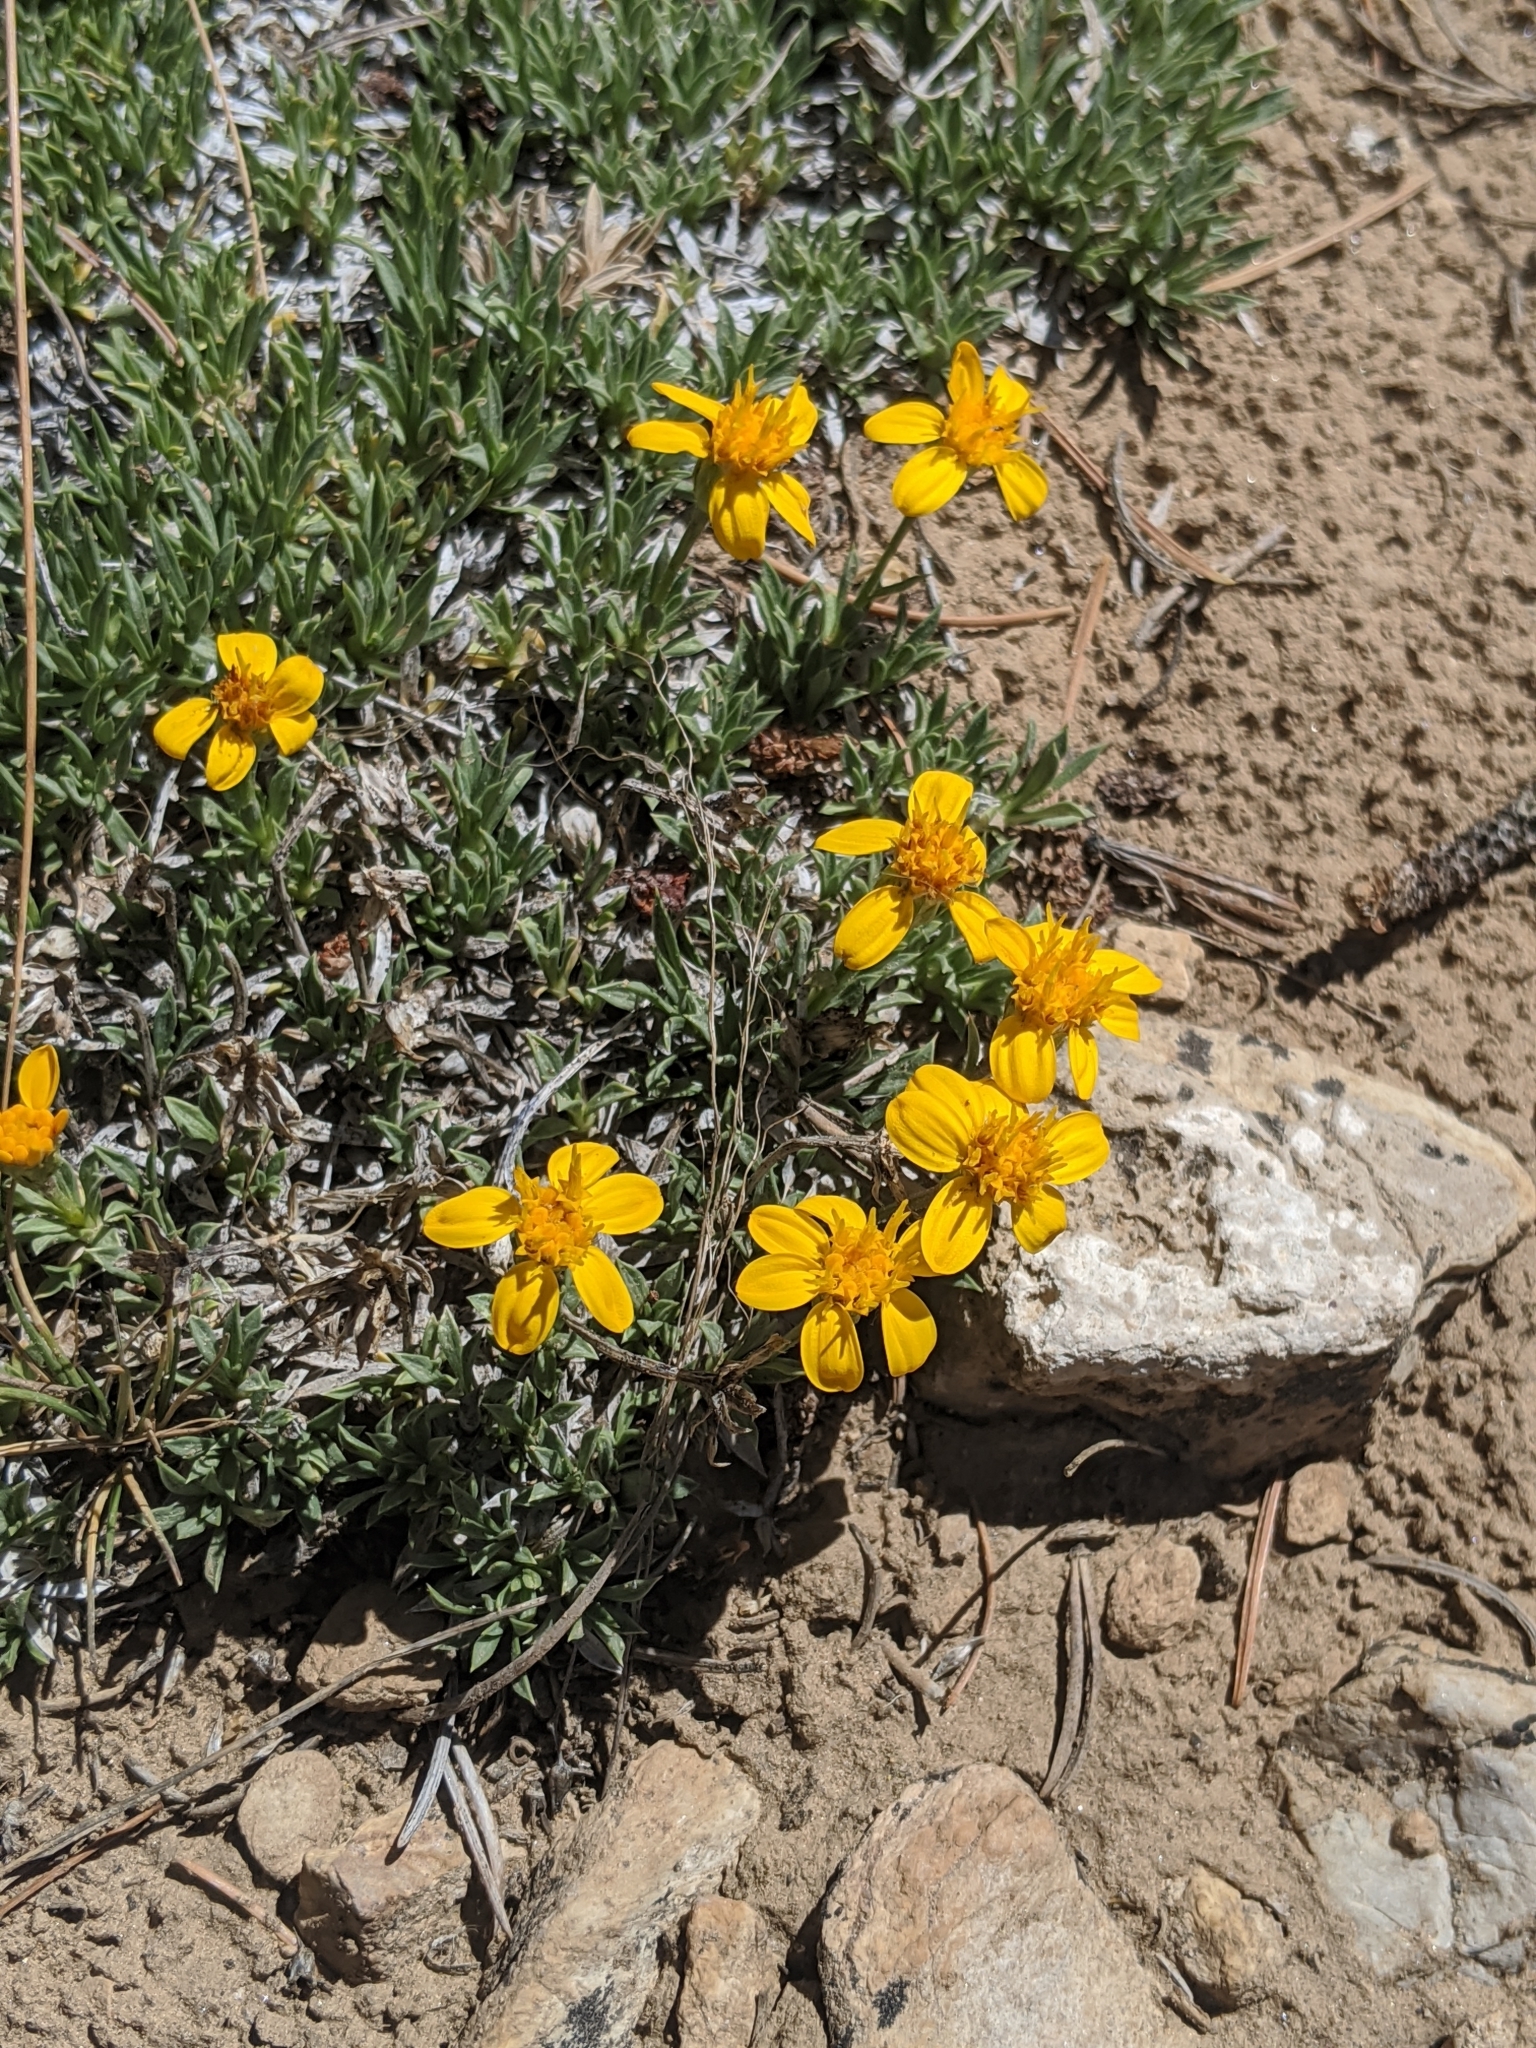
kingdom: Plantae
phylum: Tracheophyta
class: Magnoliopsida
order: Asterales
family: Asteraceae
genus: Stenotus
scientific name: Stenotus acaulis
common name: Stemless goldenweed
